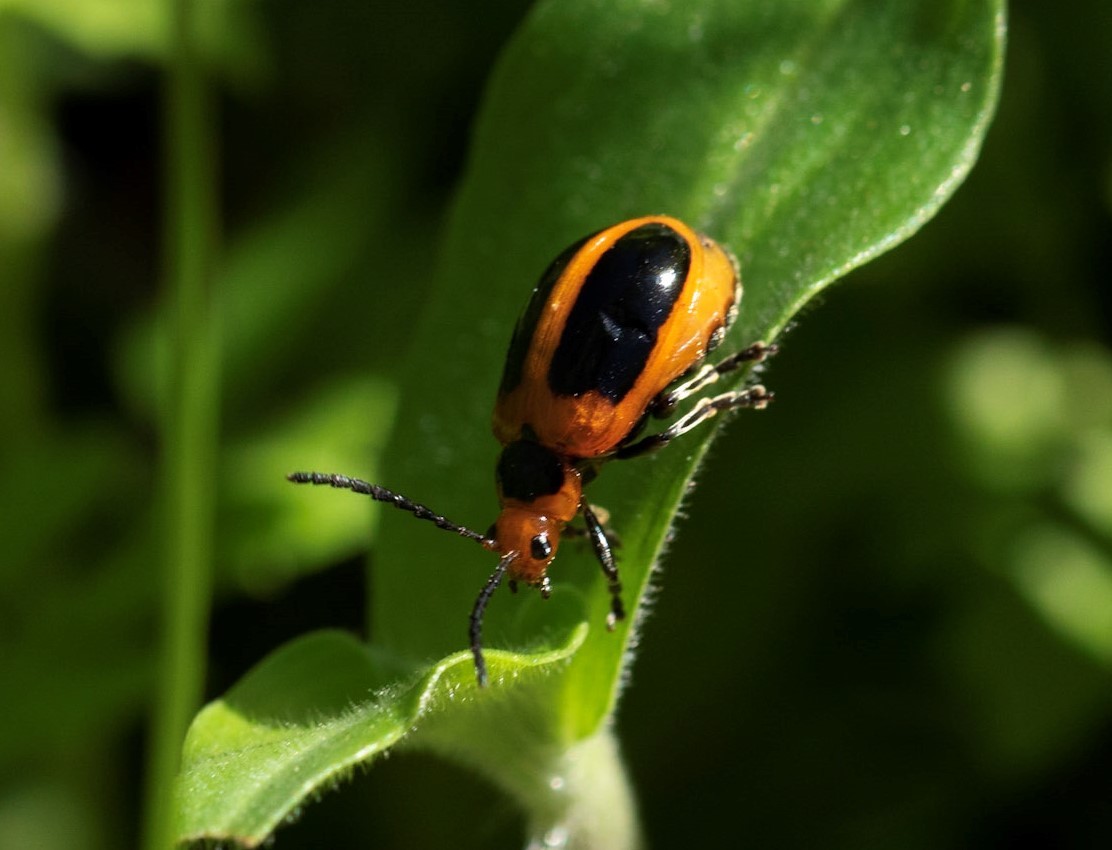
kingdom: Animalia
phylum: Arthropoda
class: Insecta
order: Coleoptera
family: Chrysomelidae
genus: Oides
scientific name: Oides
